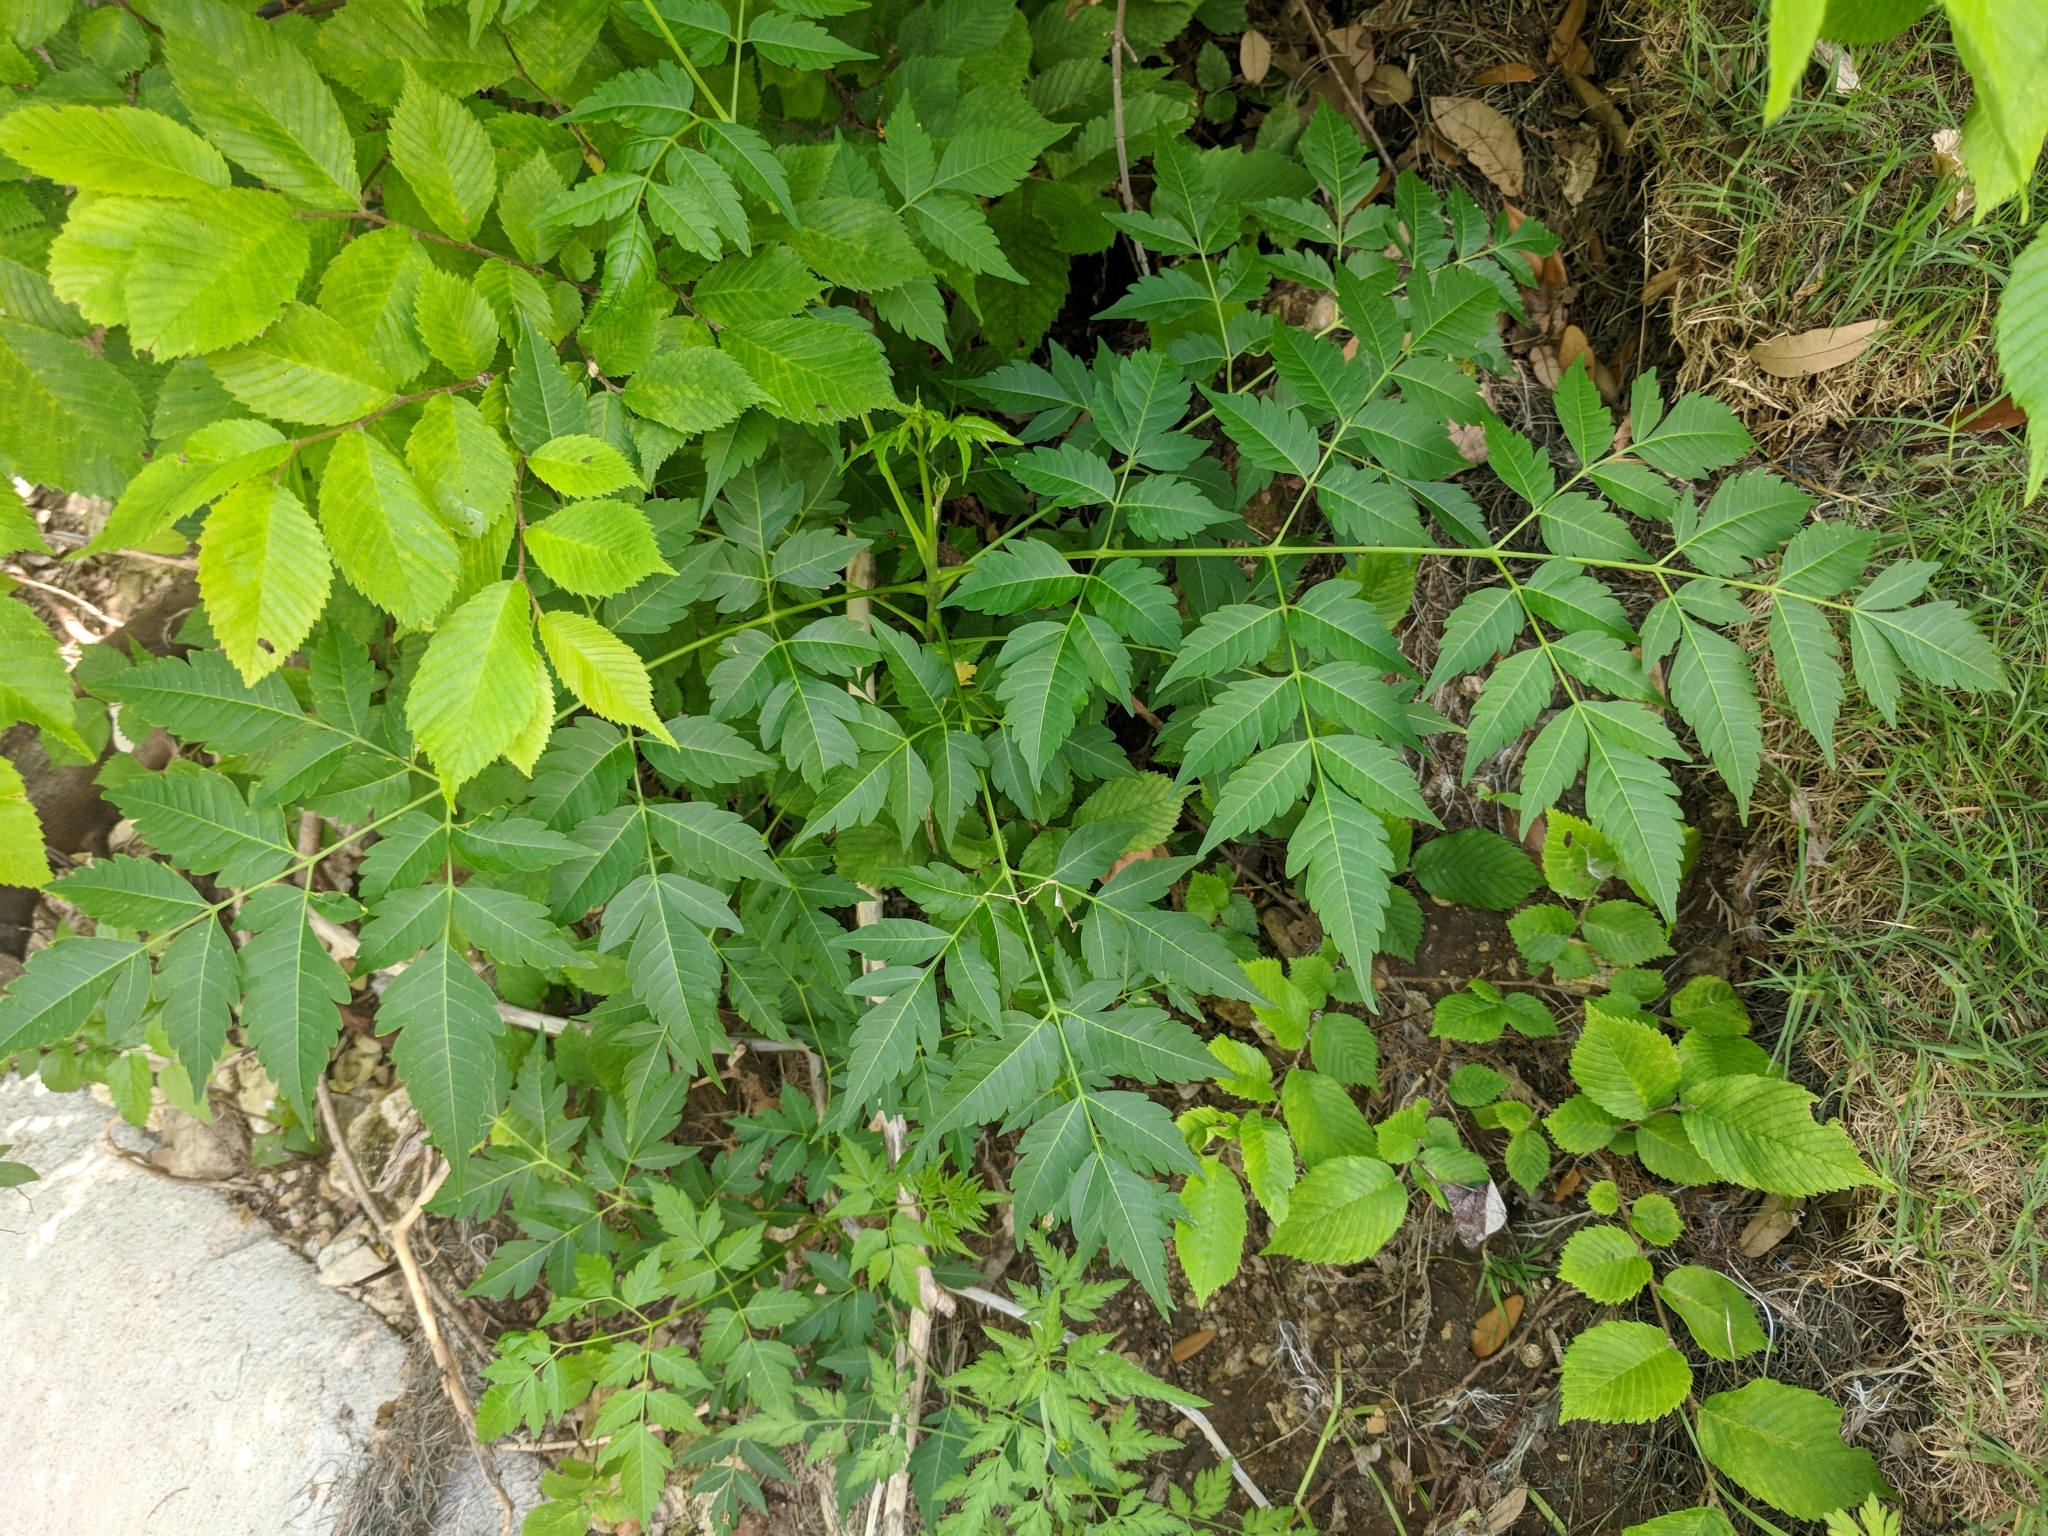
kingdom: Plantae
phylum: Tracheophyta
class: Magnoliopsida
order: Sapindales
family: Meliaceae
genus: Melia
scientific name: Melia azedarach
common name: Chinaberrytree
